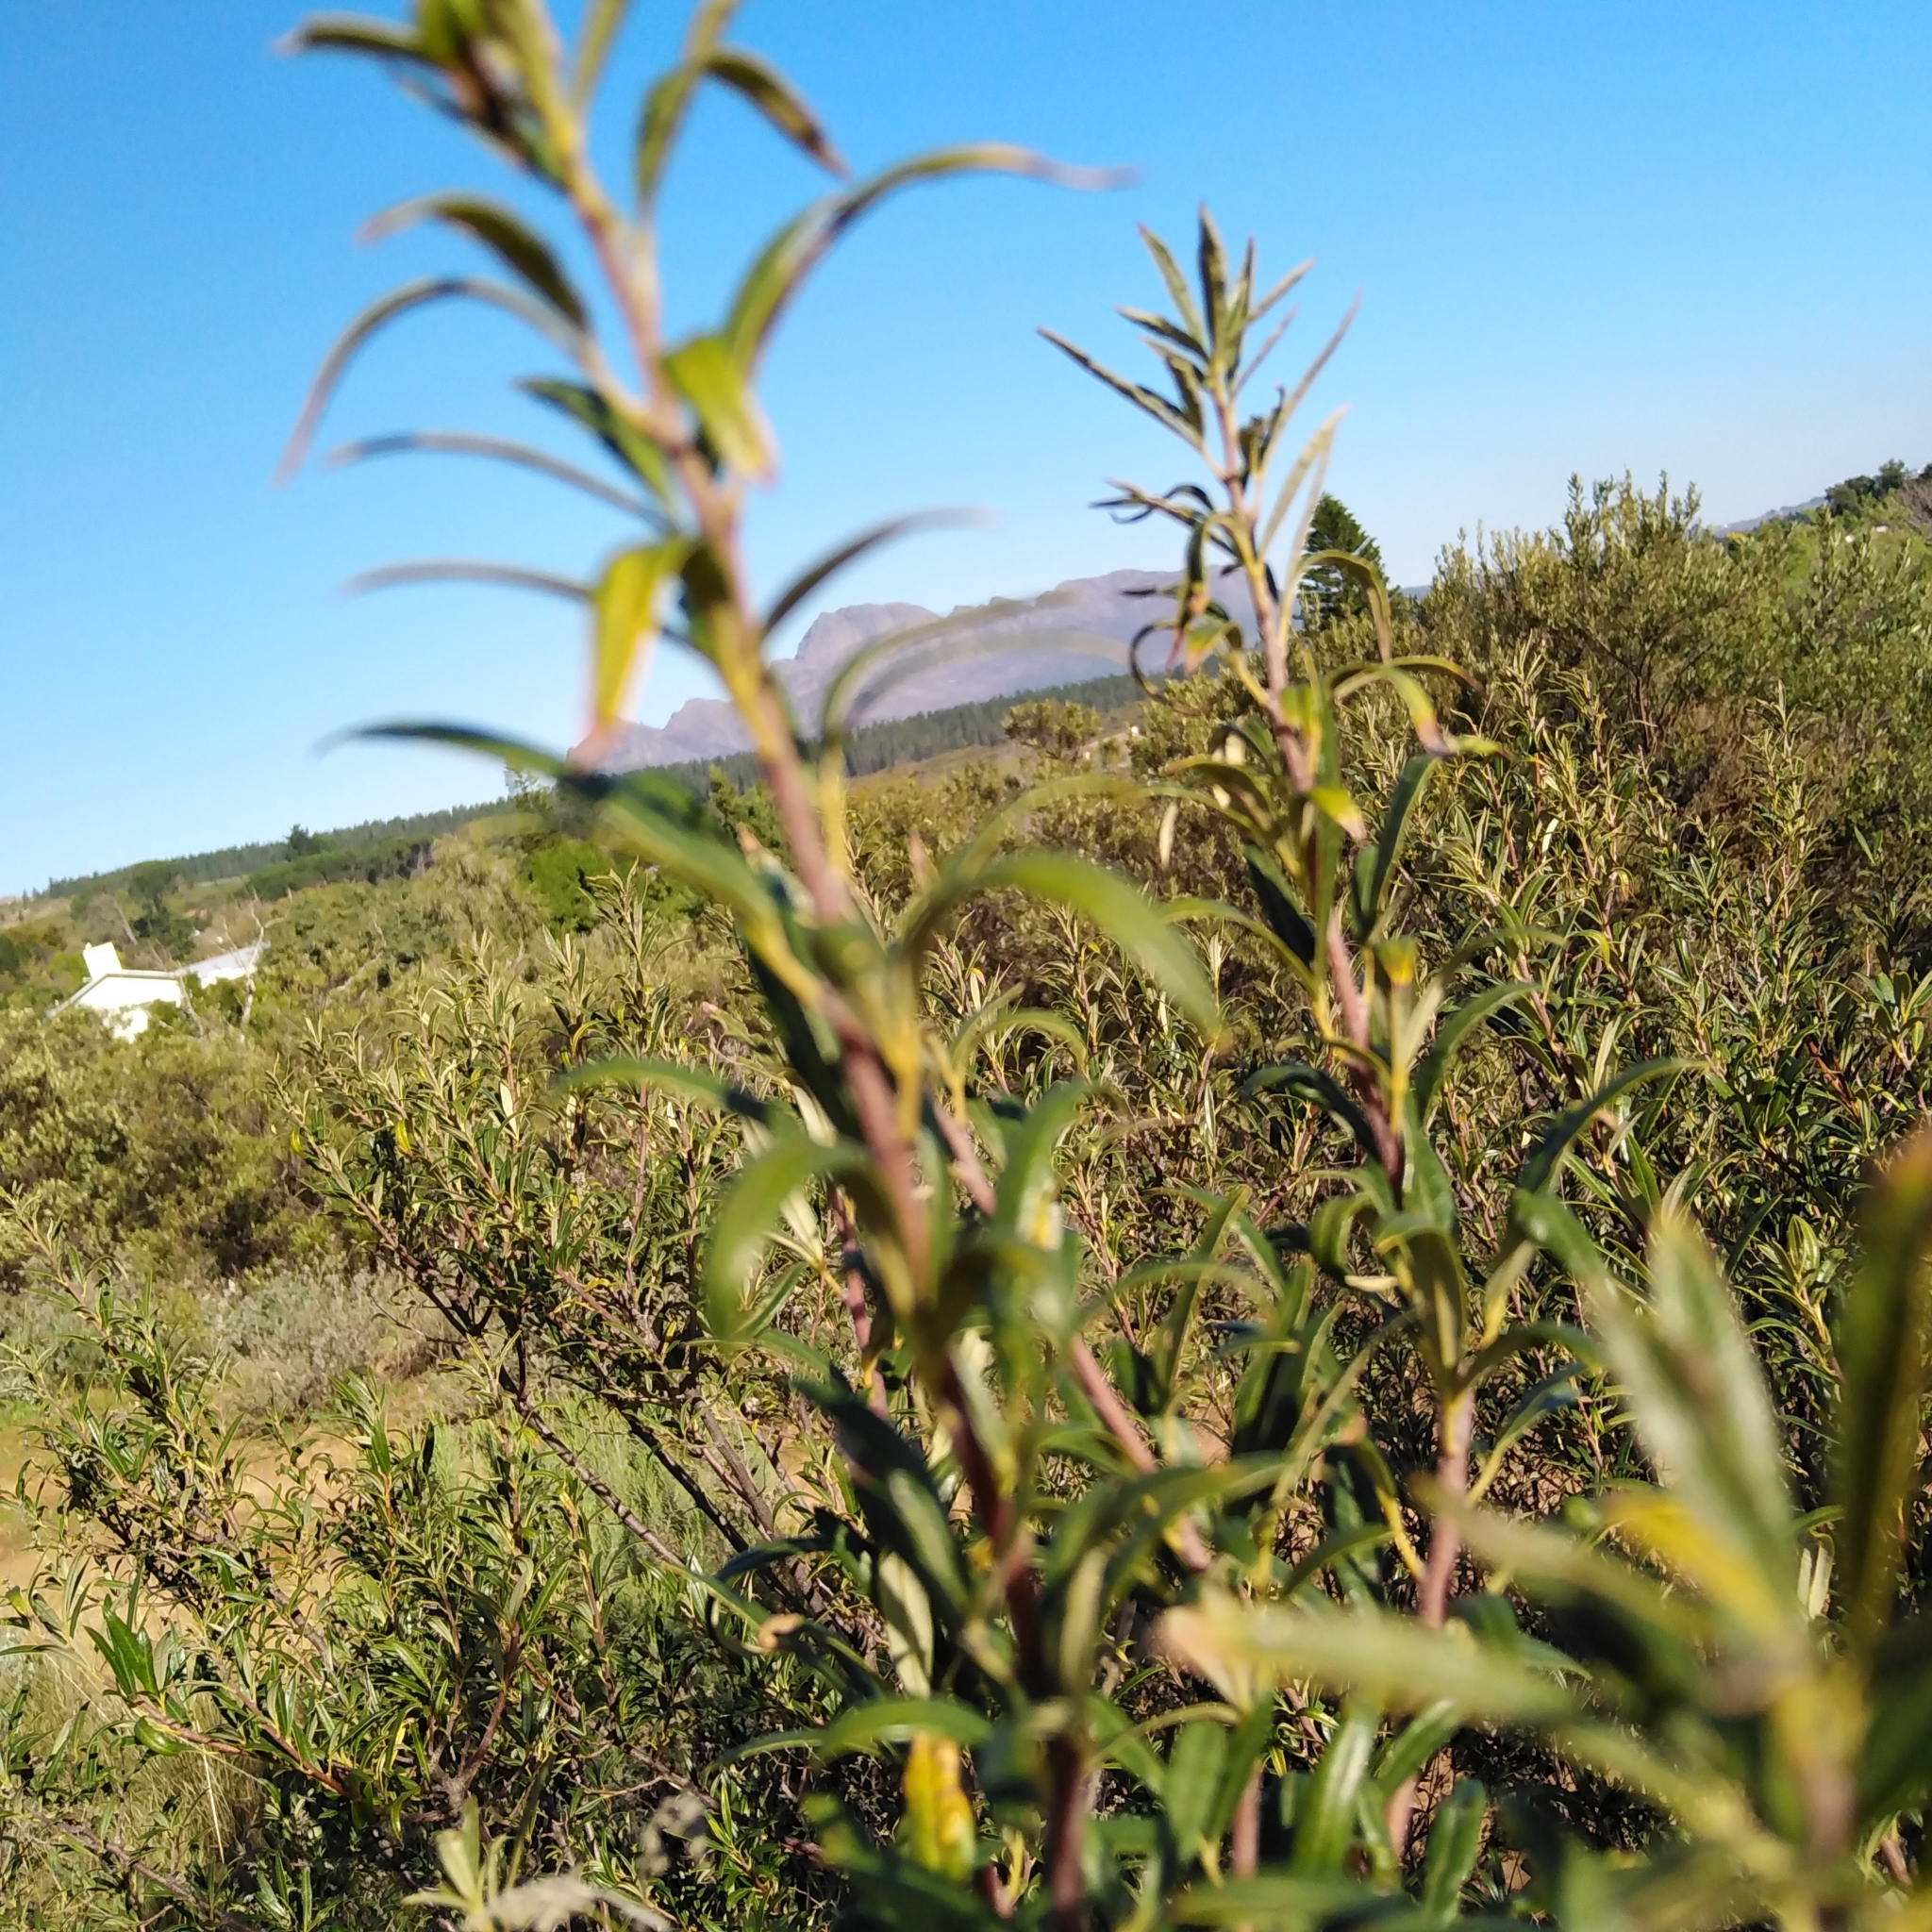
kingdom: Plantae
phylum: Tracheophyta
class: Magnoliopsida
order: Sapindales
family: Anacardiaceae
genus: Searsia
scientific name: Searsia angustifolia
